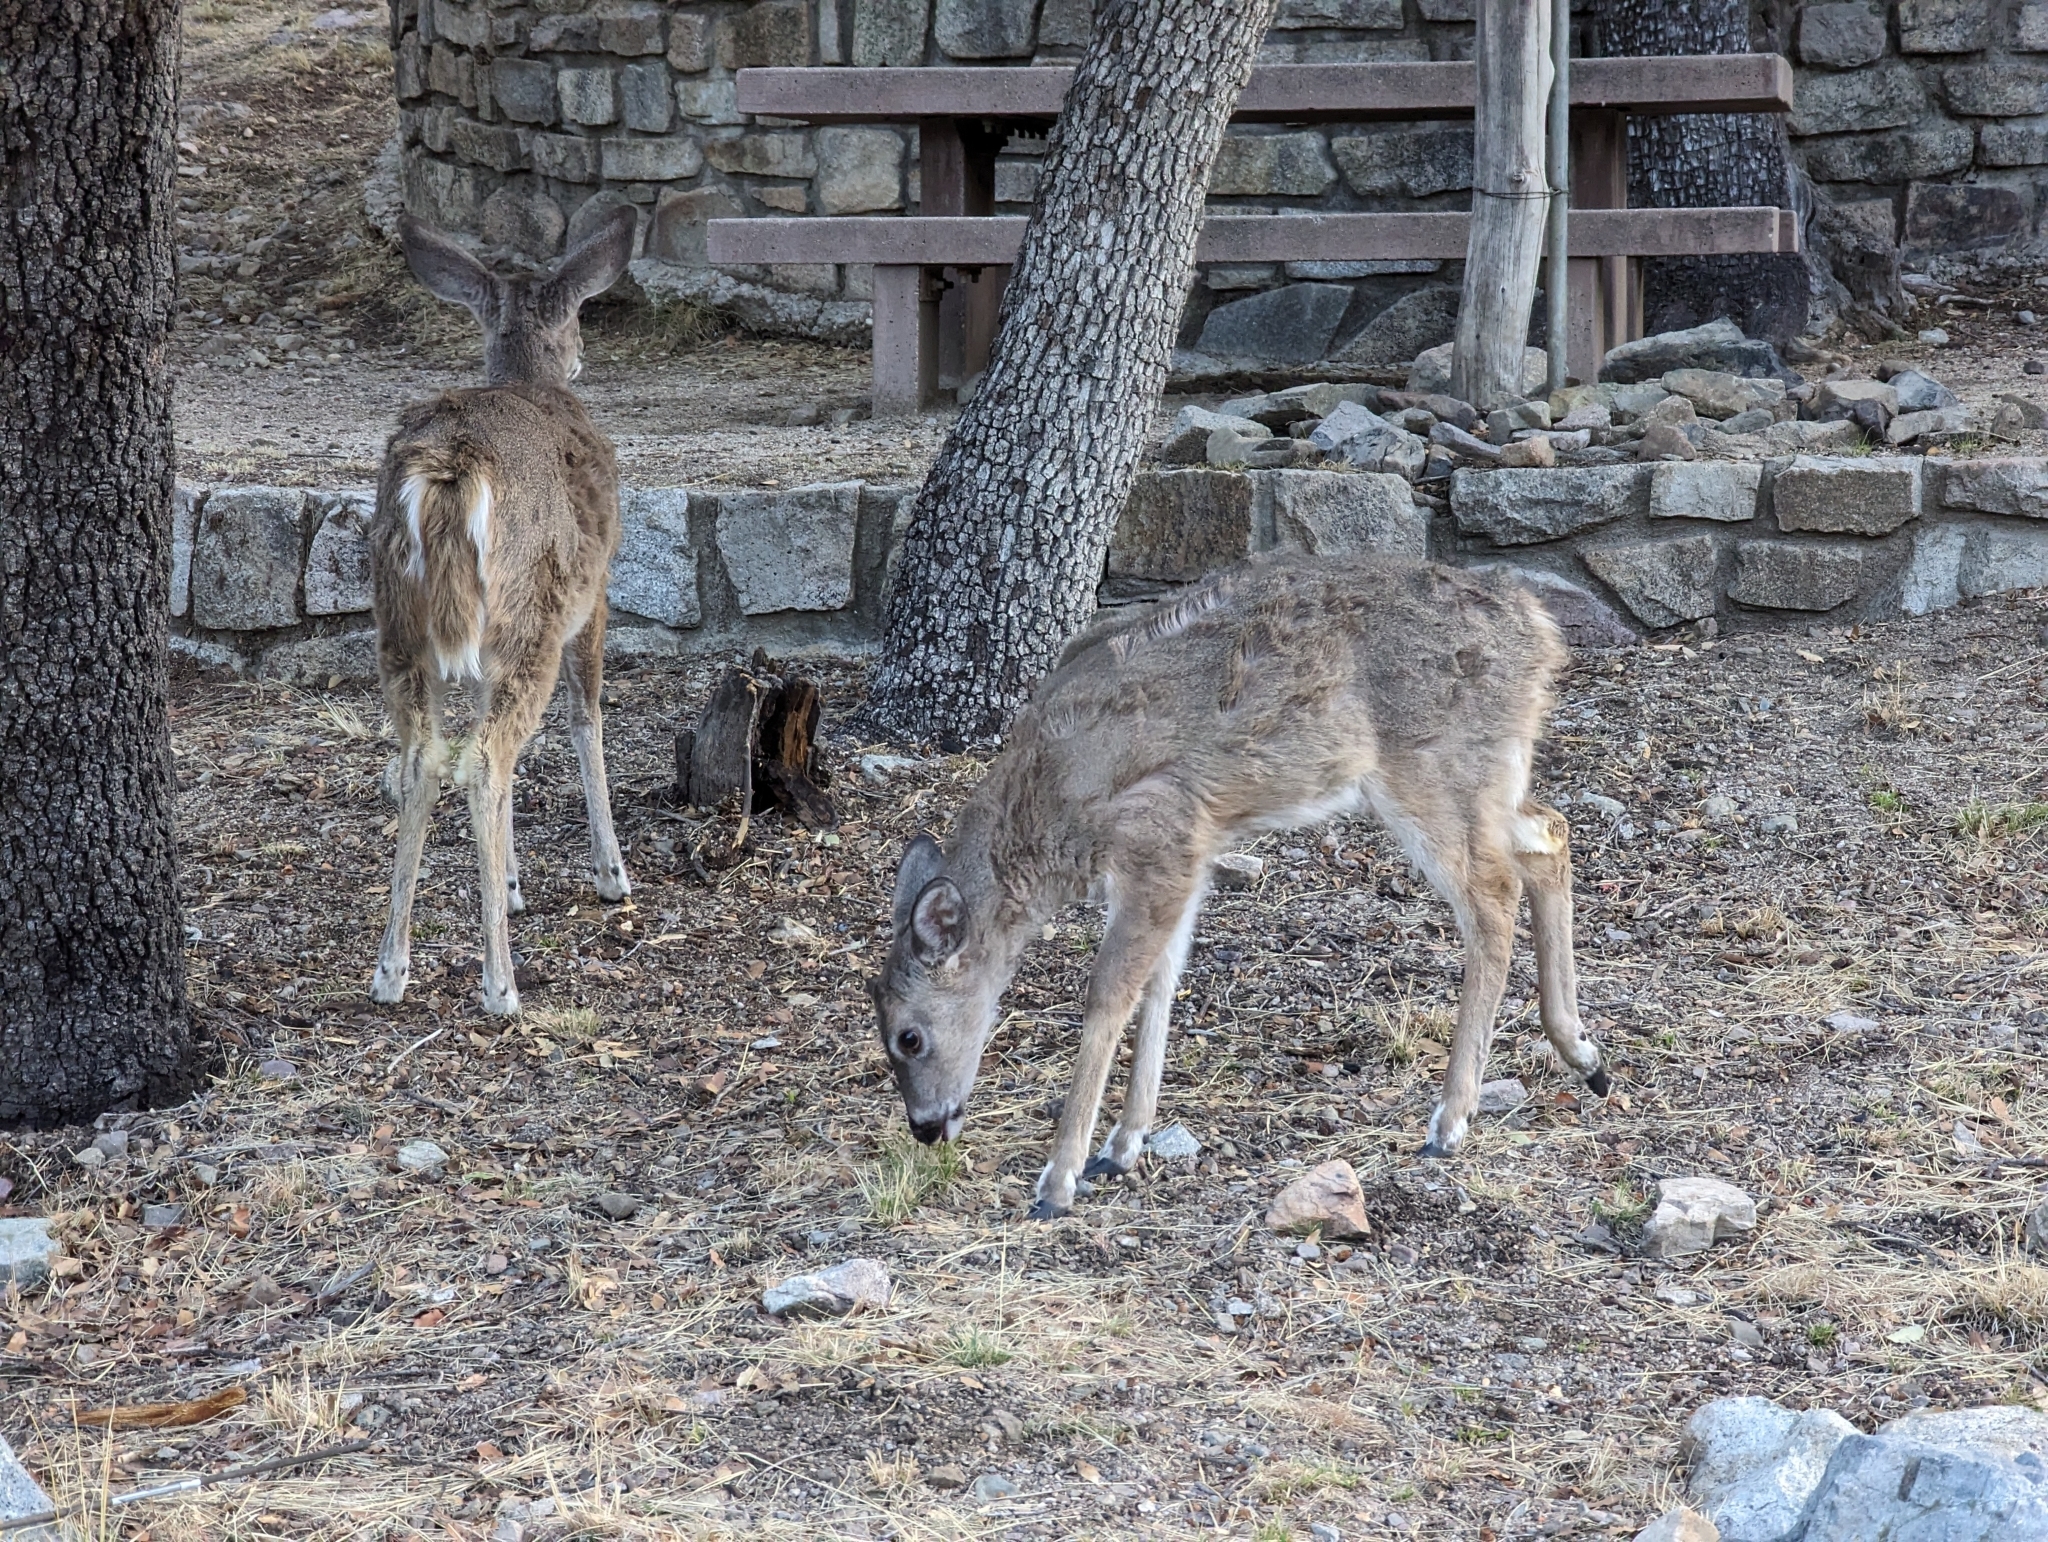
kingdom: Animalia
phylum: Chordata
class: Mammalia
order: Artiodactyla
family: Cervidae
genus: Odocoileus
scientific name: Odocoileus virginianus
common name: White-tailed deer
